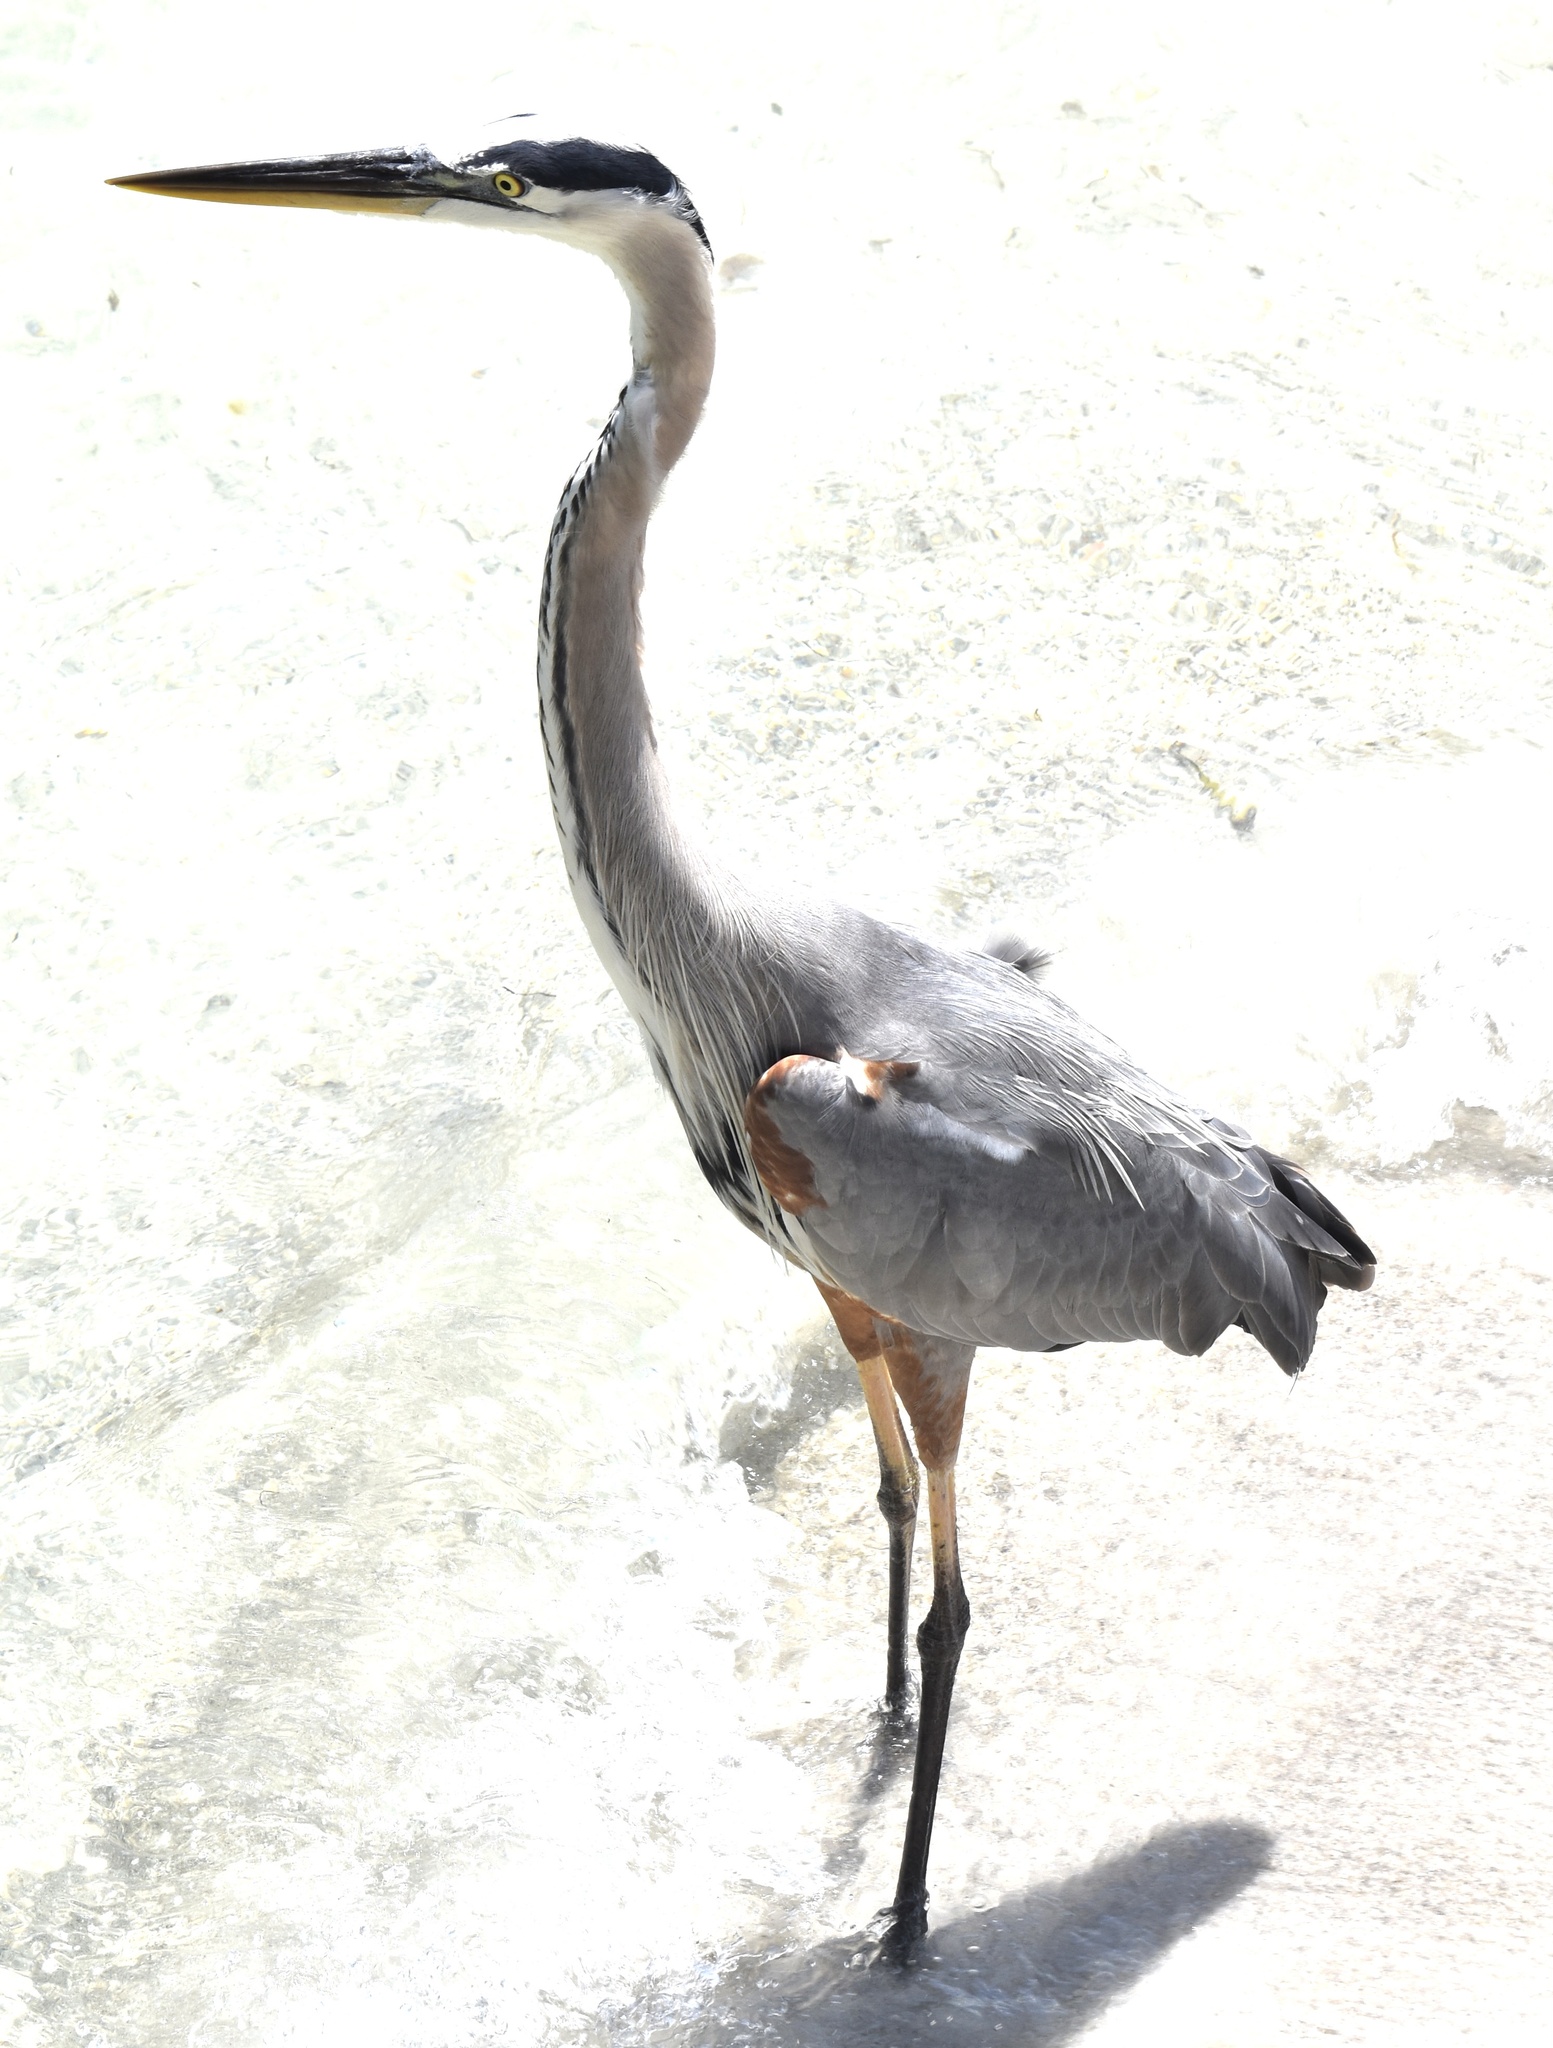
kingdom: Animalia
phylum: Chordata
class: Aves
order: Pelecaniformes
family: Ardeidae
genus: Ardea
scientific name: Ardea herodias
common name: Great blue heron
